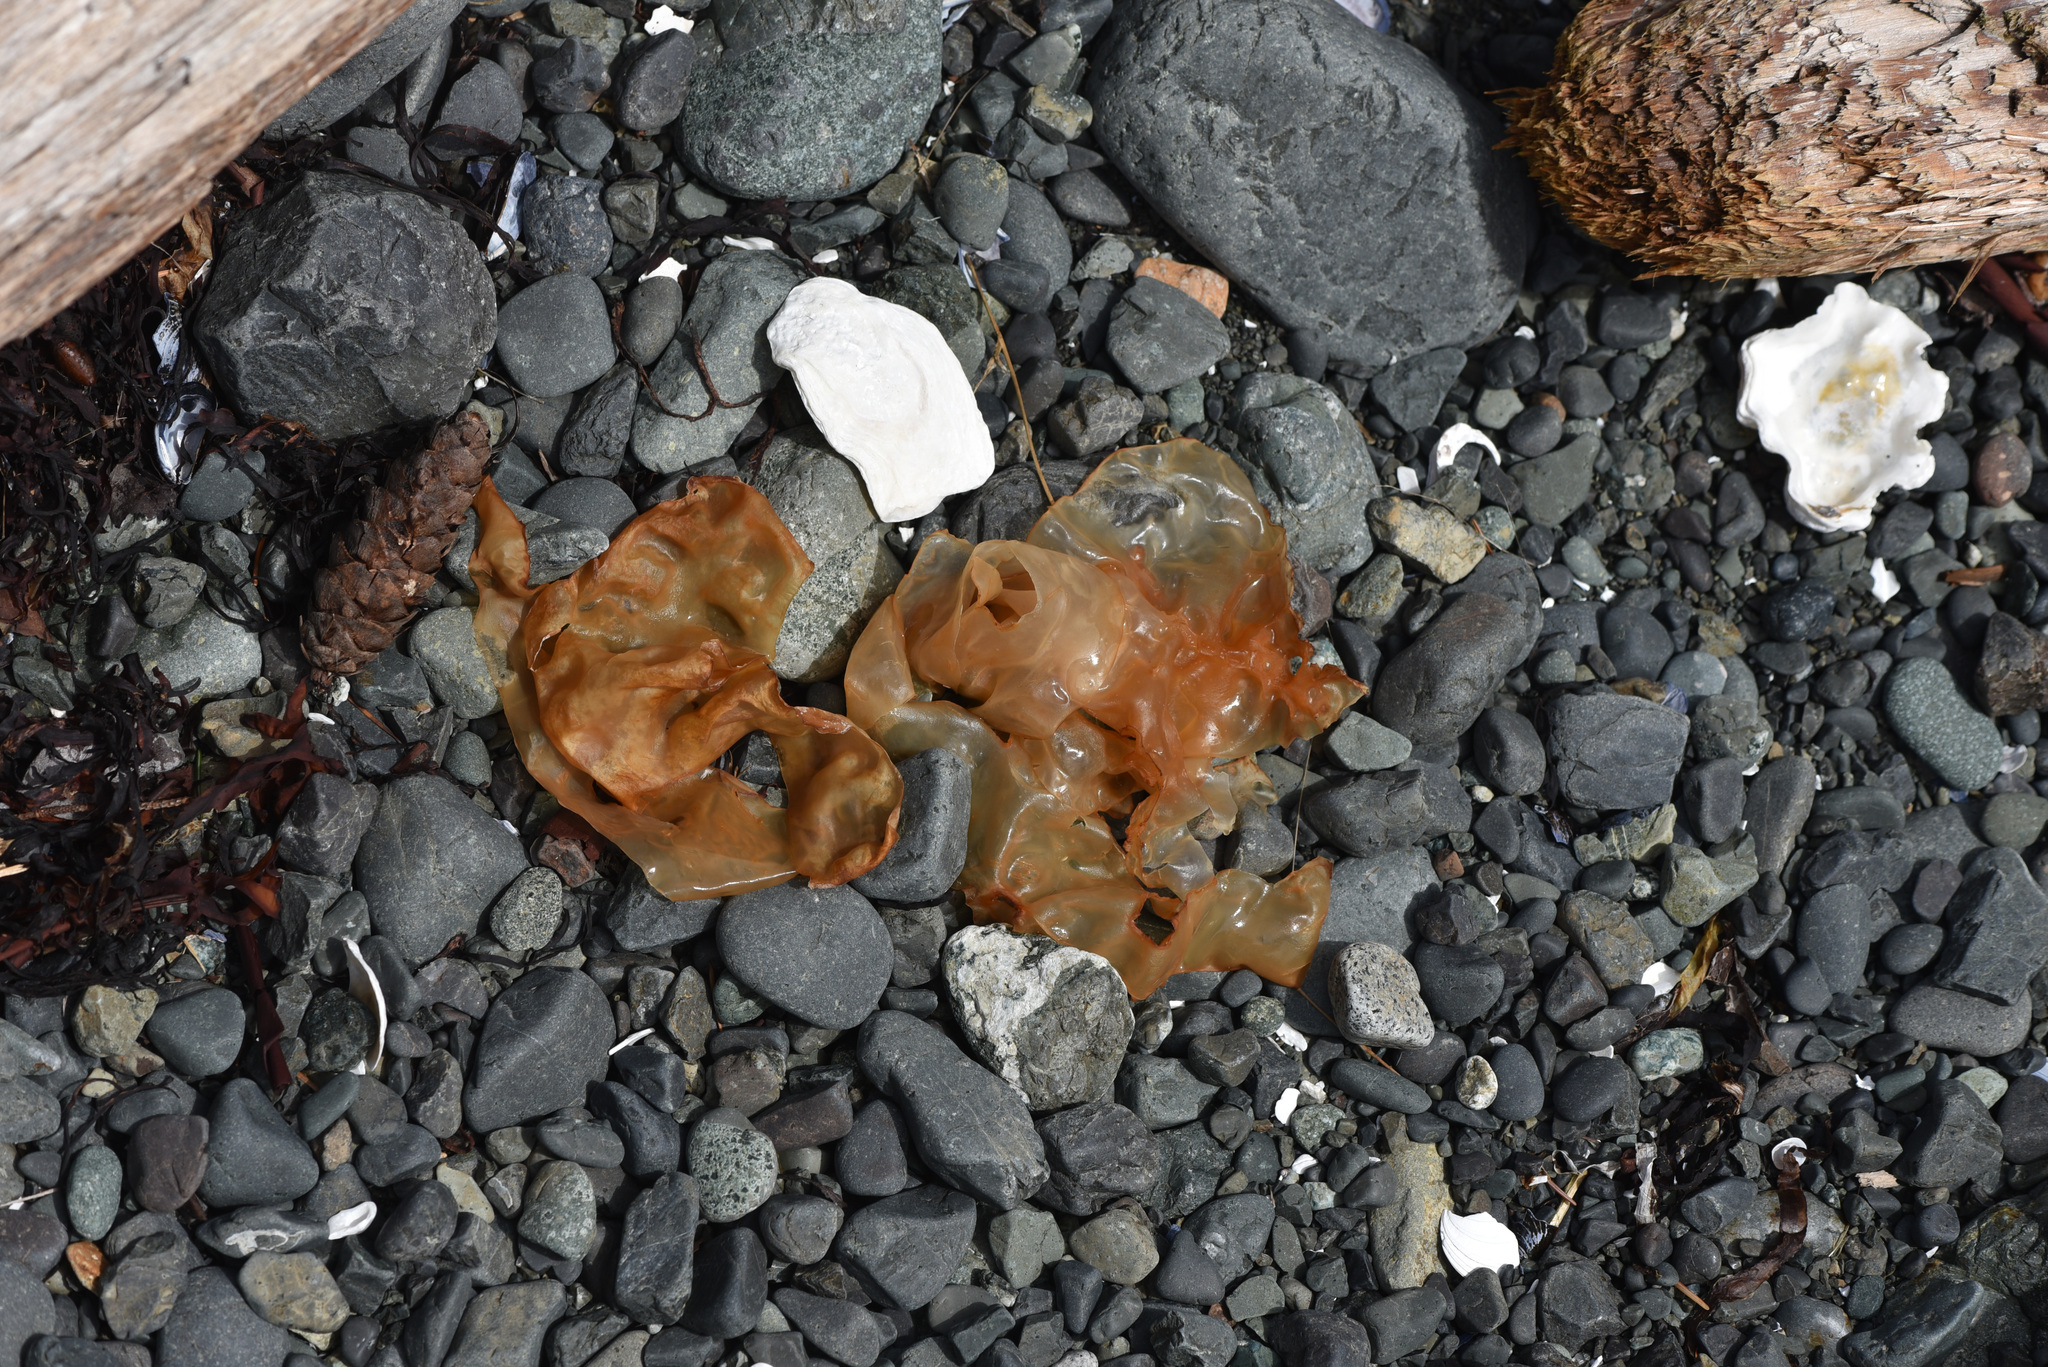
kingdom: Plantae
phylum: Tracheophyta
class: Pinopsida
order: Pinales
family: Pinaceae
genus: Pseudotsuga
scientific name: Pseudotsuga menziesii
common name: Douglas fir
